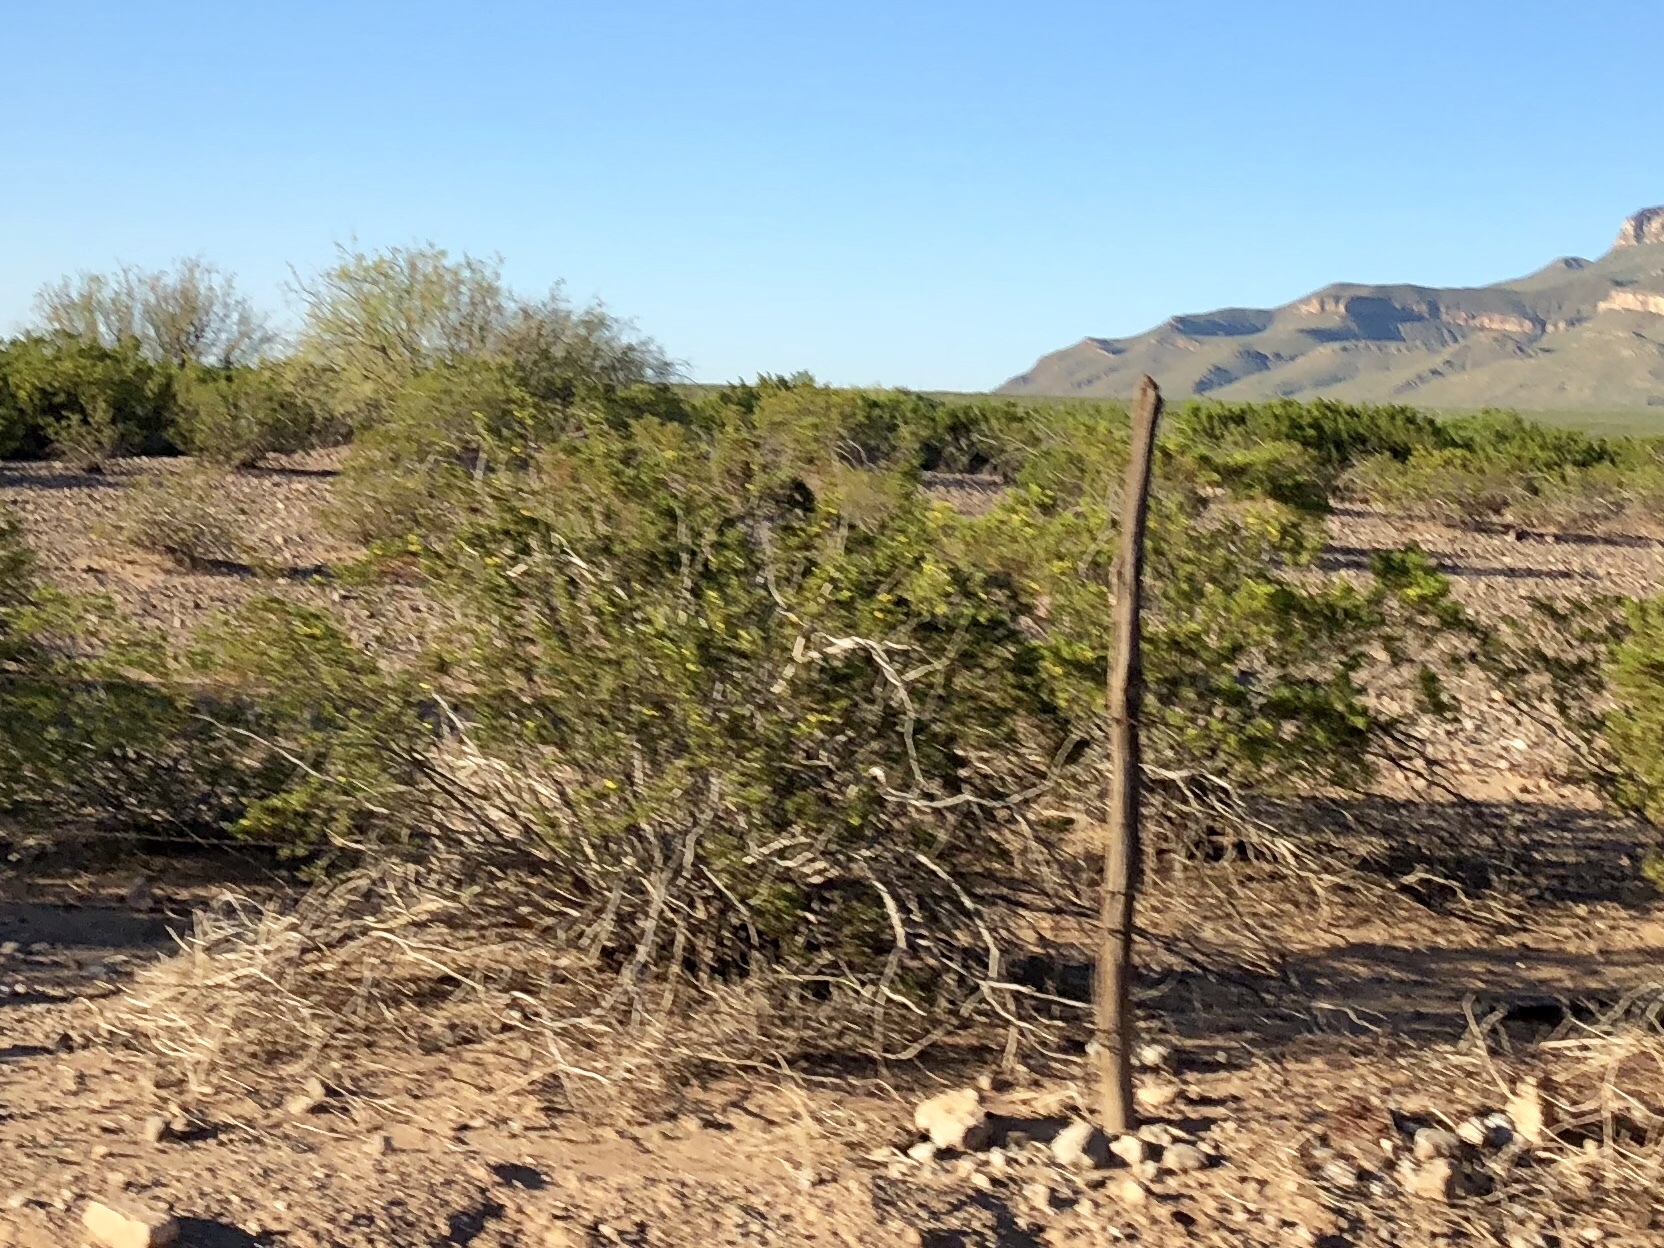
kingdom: Plantae
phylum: Tracheophyta
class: Magnoliopsida
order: Zygophyllales
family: Zygophyllaceae
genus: Larrea
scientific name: Larrea tridentata
